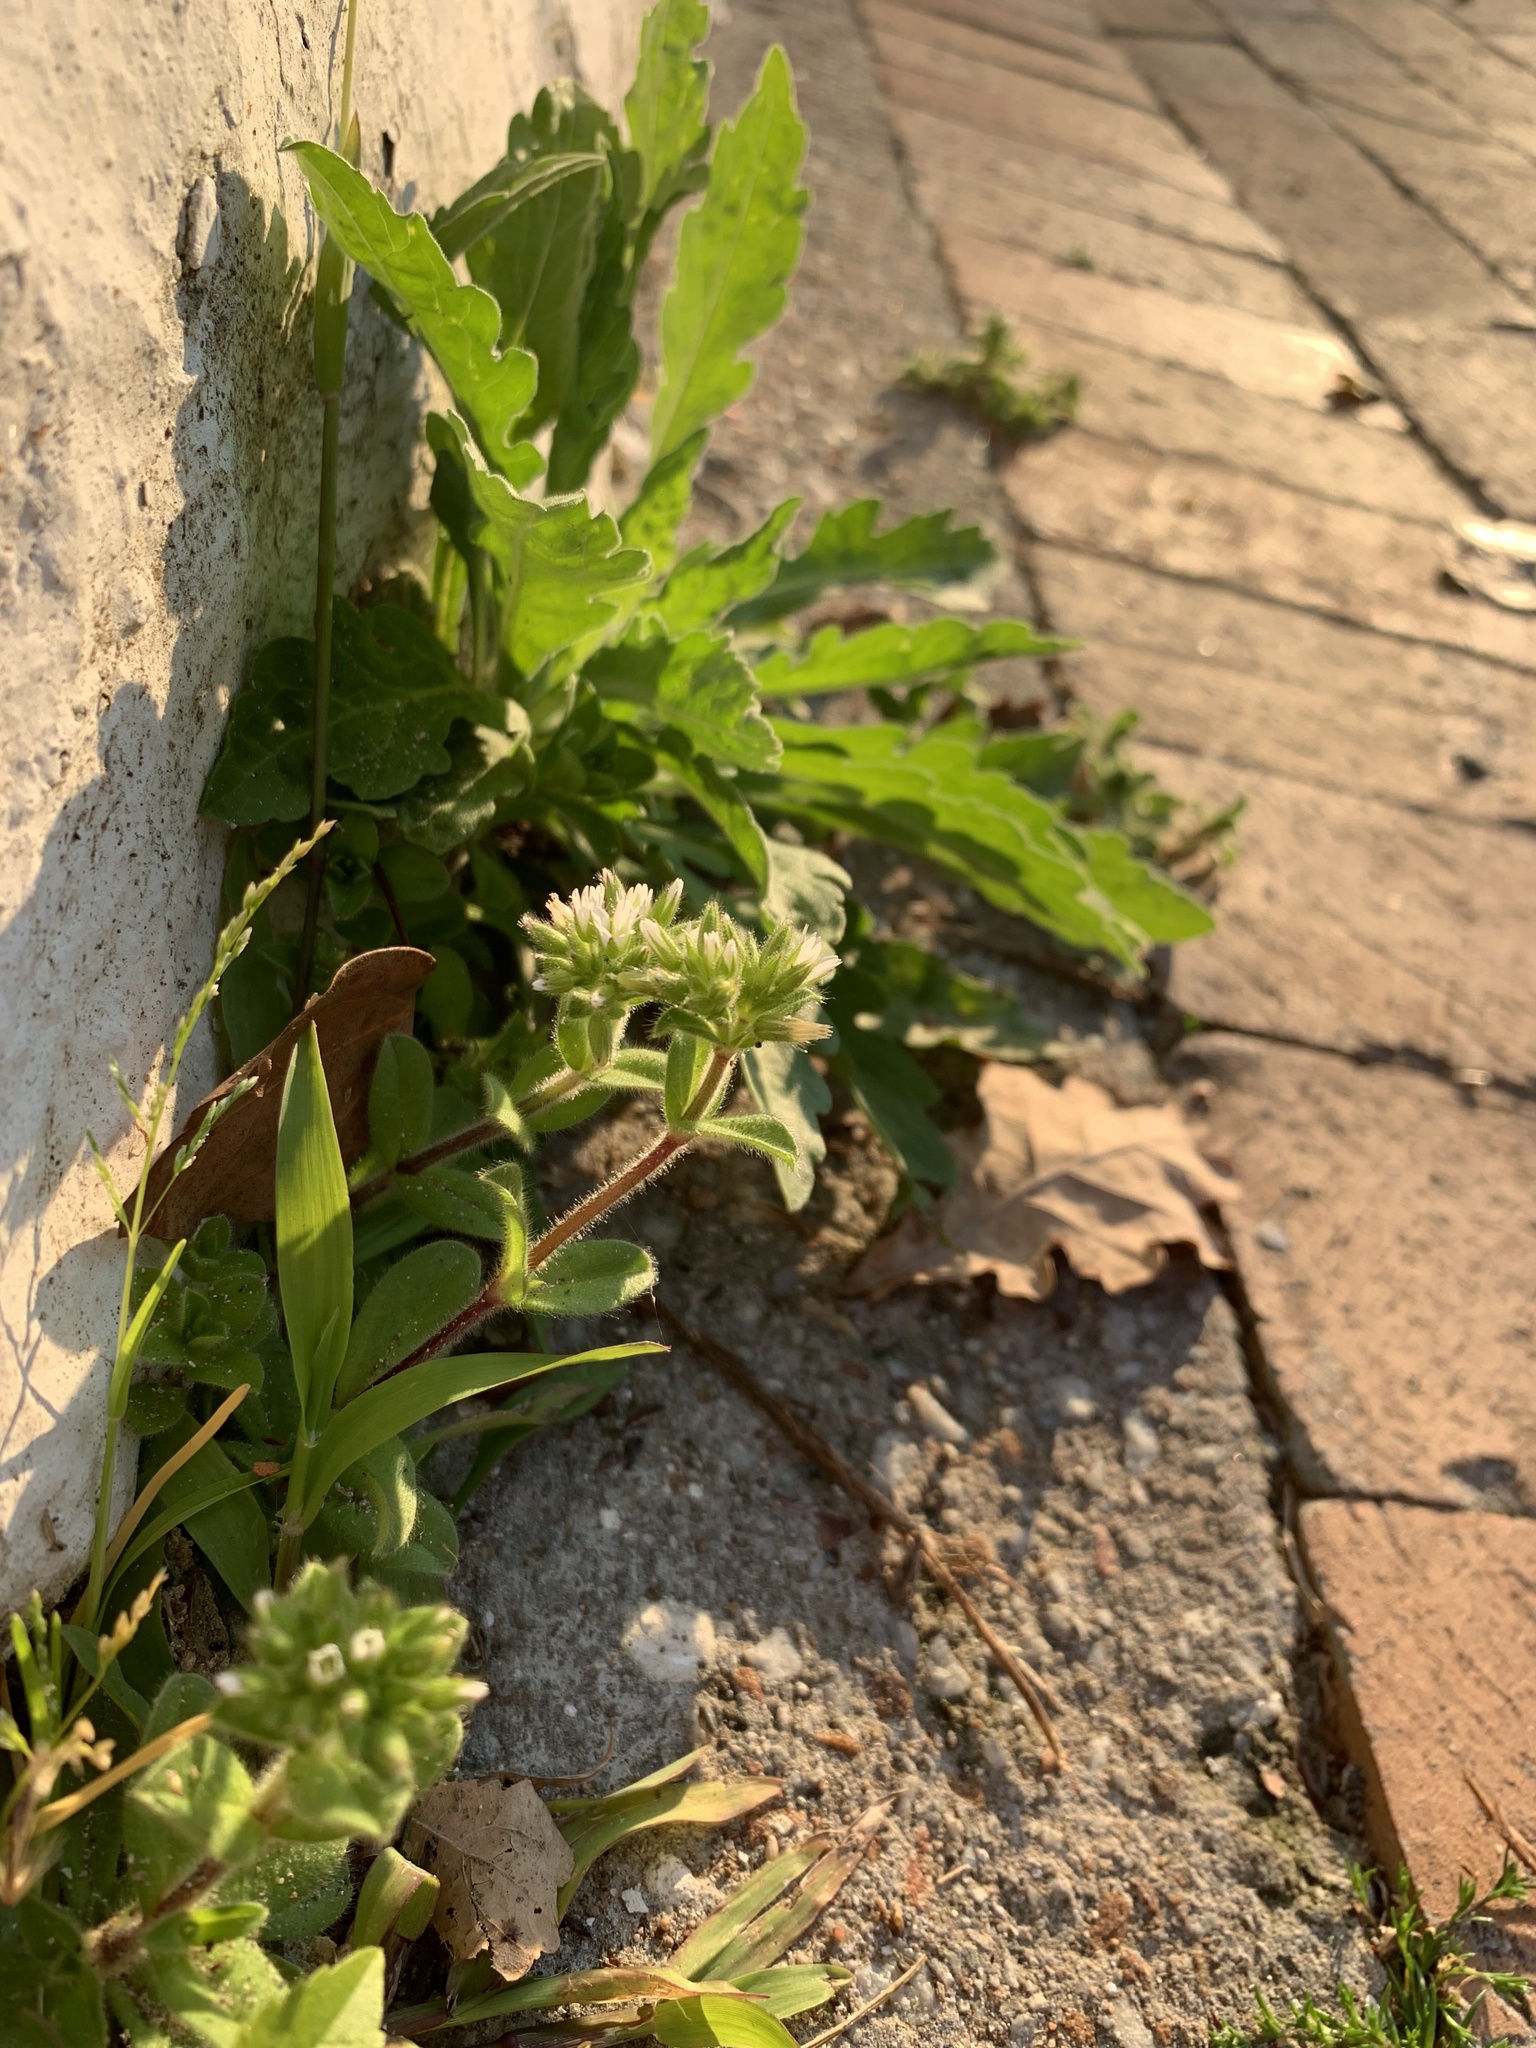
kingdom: Plantae
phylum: Tracheophyta
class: Magnoliopsida
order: Caryophyllales
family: Caryophyllaceae
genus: Cerastium
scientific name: Cerastium glomeratum
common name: Sticky chickweed
